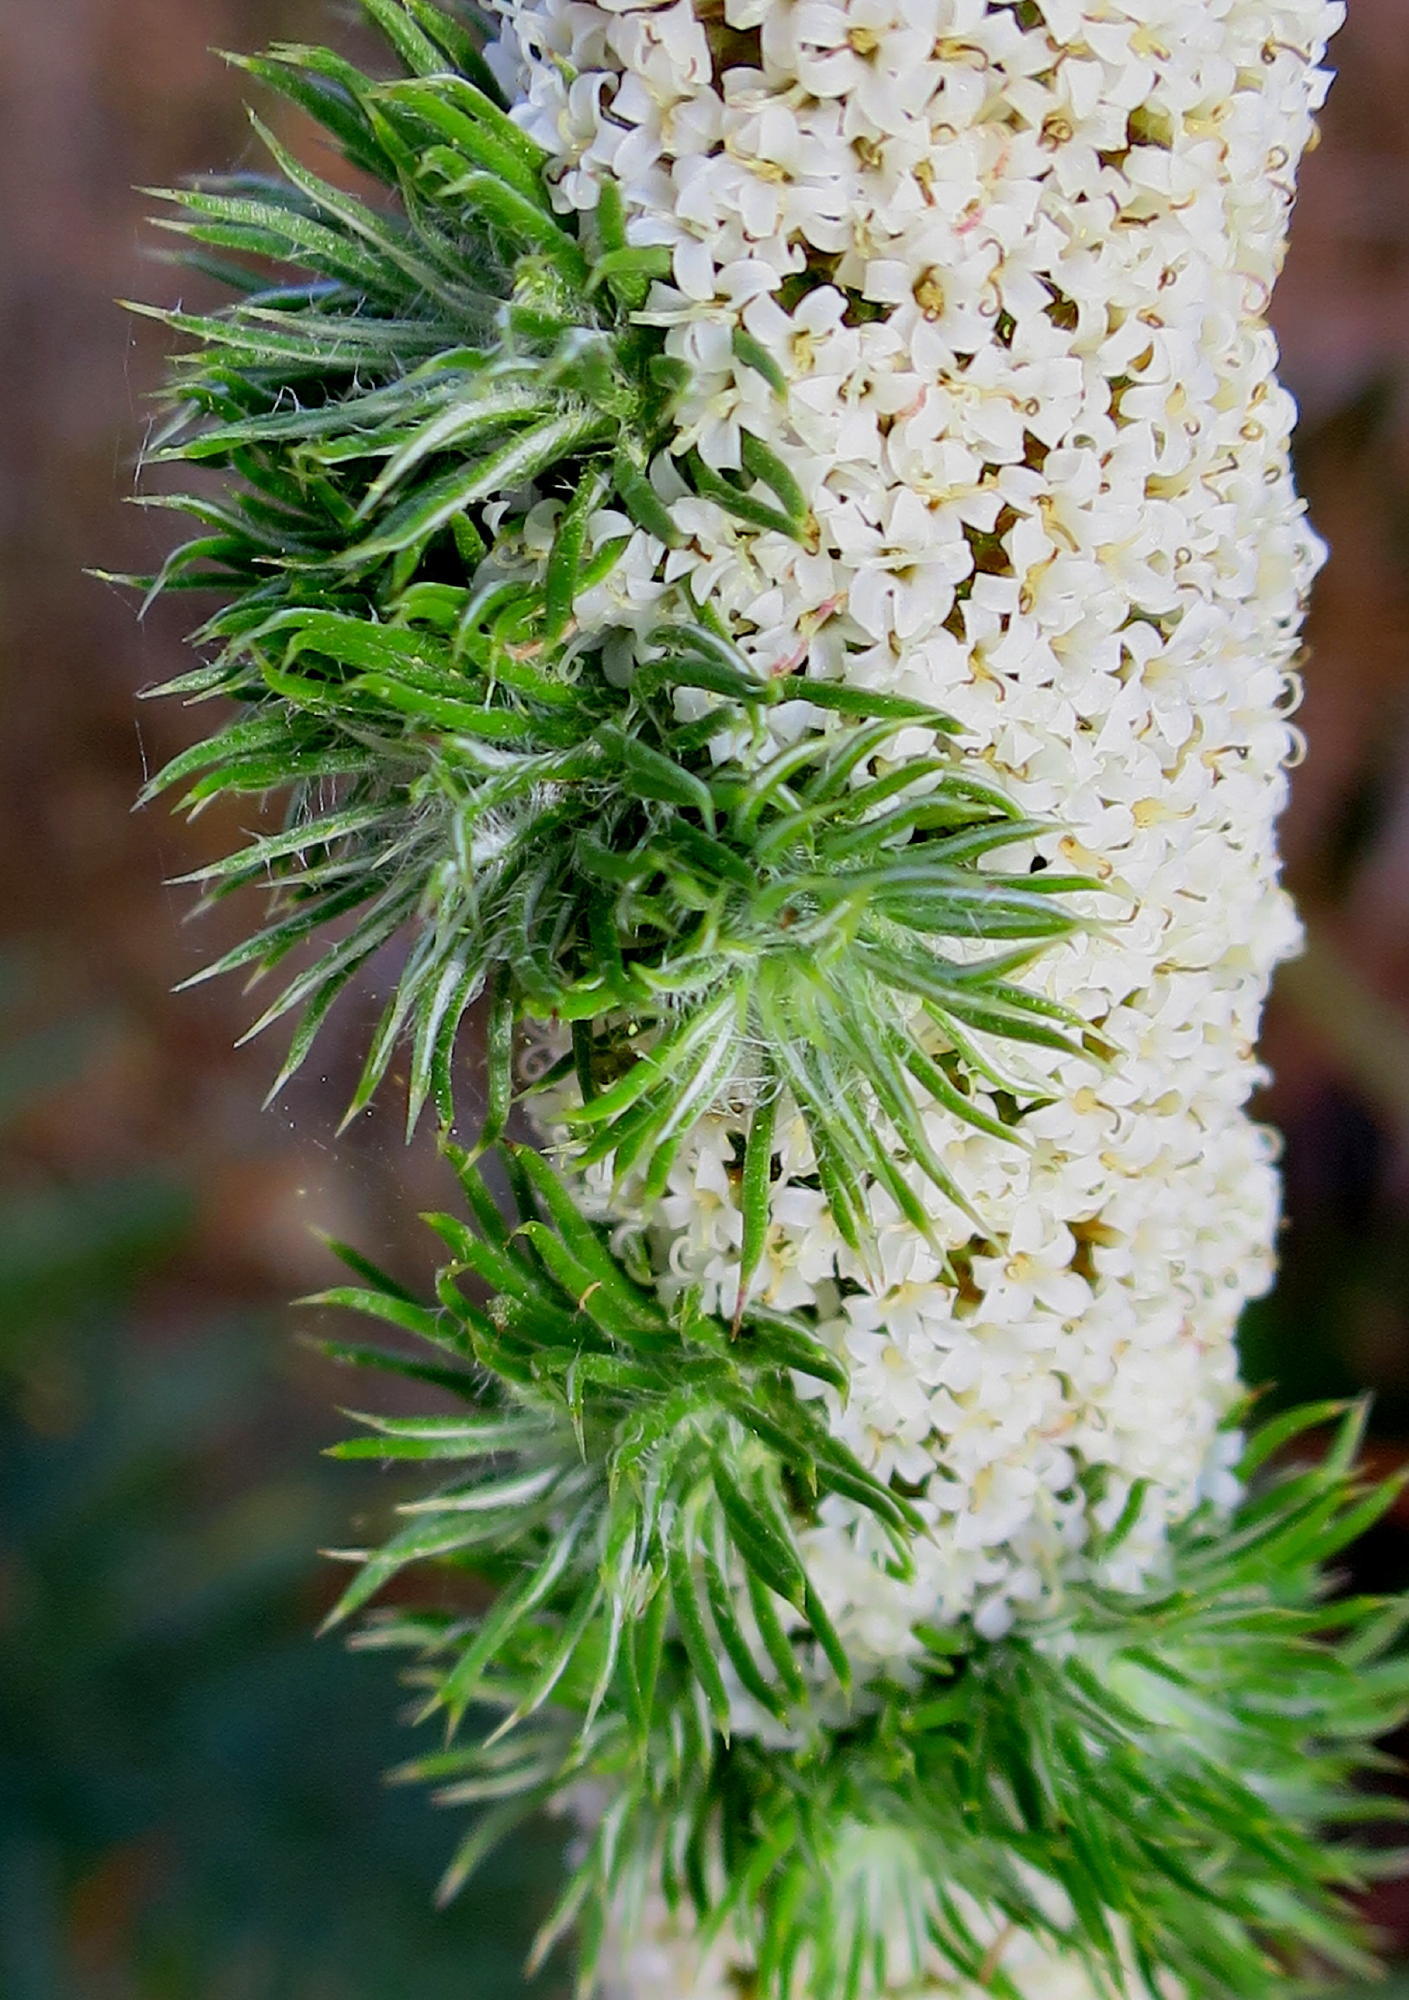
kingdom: Plantae
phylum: Tracheophyta
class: Magnoliopsida
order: Asterales
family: Asteraceae
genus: Stoebe
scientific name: Stoebe alopecuroides
